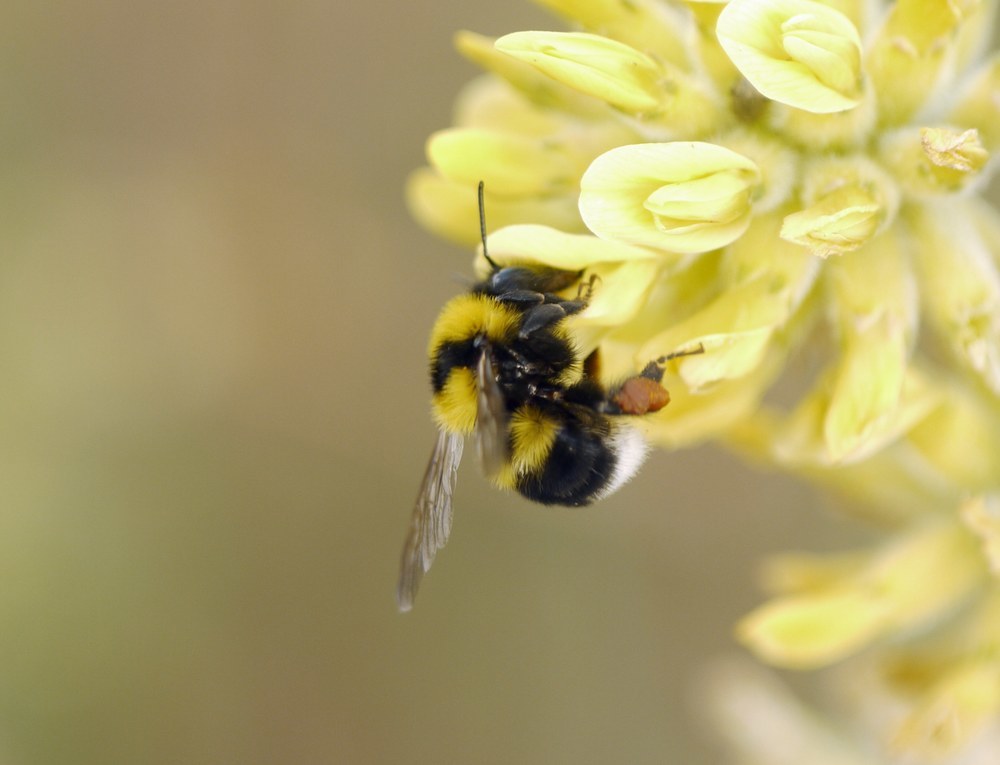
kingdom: Animalia
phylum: Arthropoda
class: Insecta
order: Hymenoptera
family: Apidae
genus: Bombus
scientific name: Bombus argillaceus
